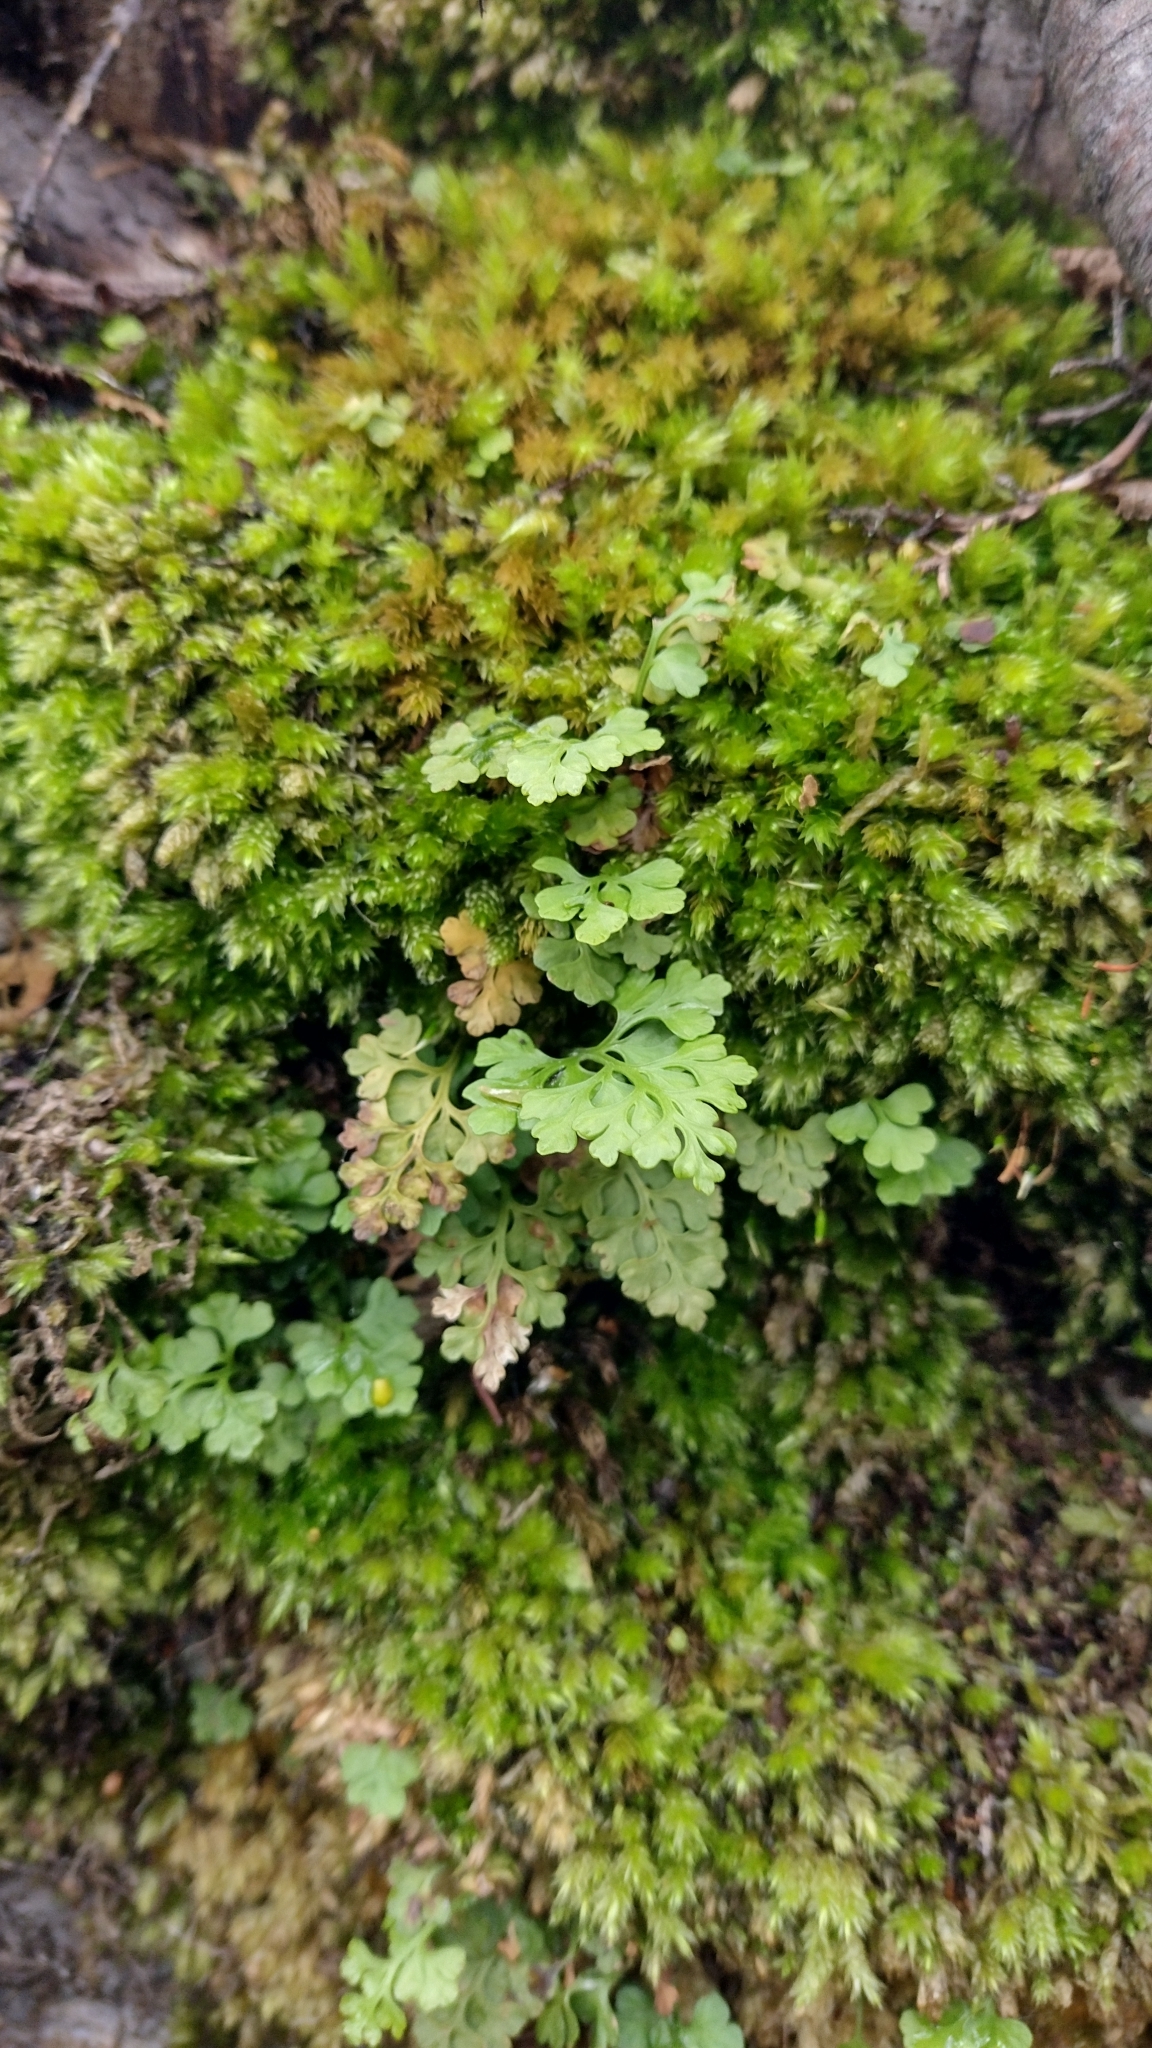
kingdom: Plantae
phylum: Tracheophyta
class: Polypodiopsida
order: Polypodiales
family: Aspleniaceae
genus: Asplenium
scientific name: Asplenium dareoides
